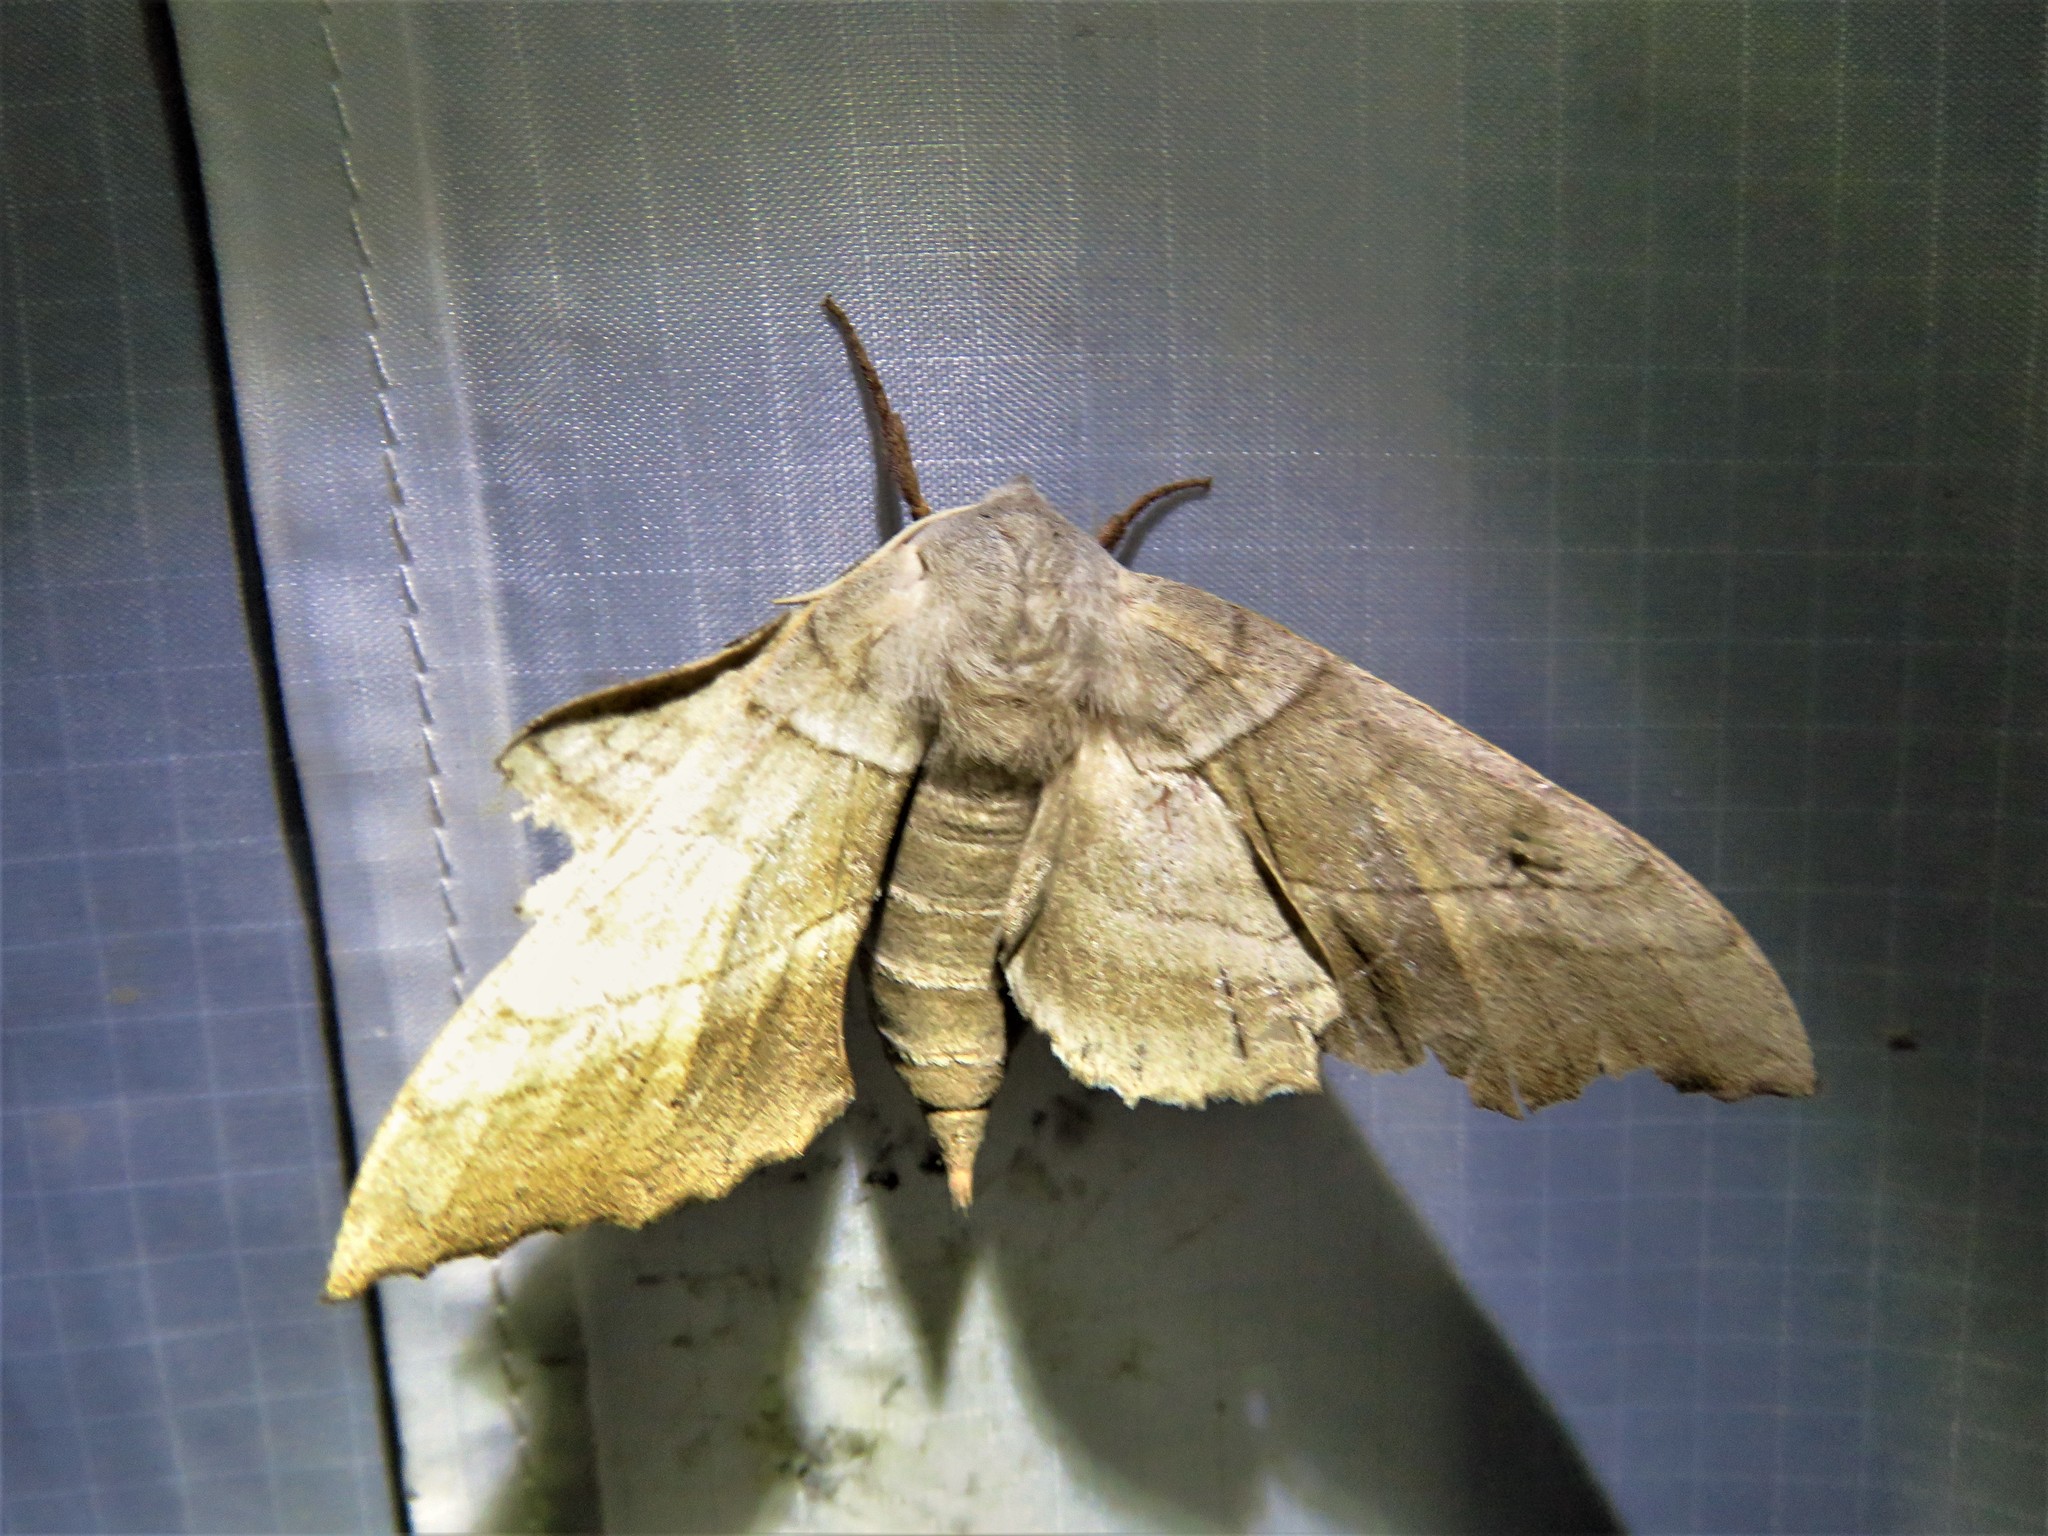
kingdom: Animalia
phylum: Arthropoda
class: Insecta
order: Lepidoptera
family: Sphingidae
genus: Amorpha
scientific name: Amorpha juglandis
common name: Walnut sphinx
